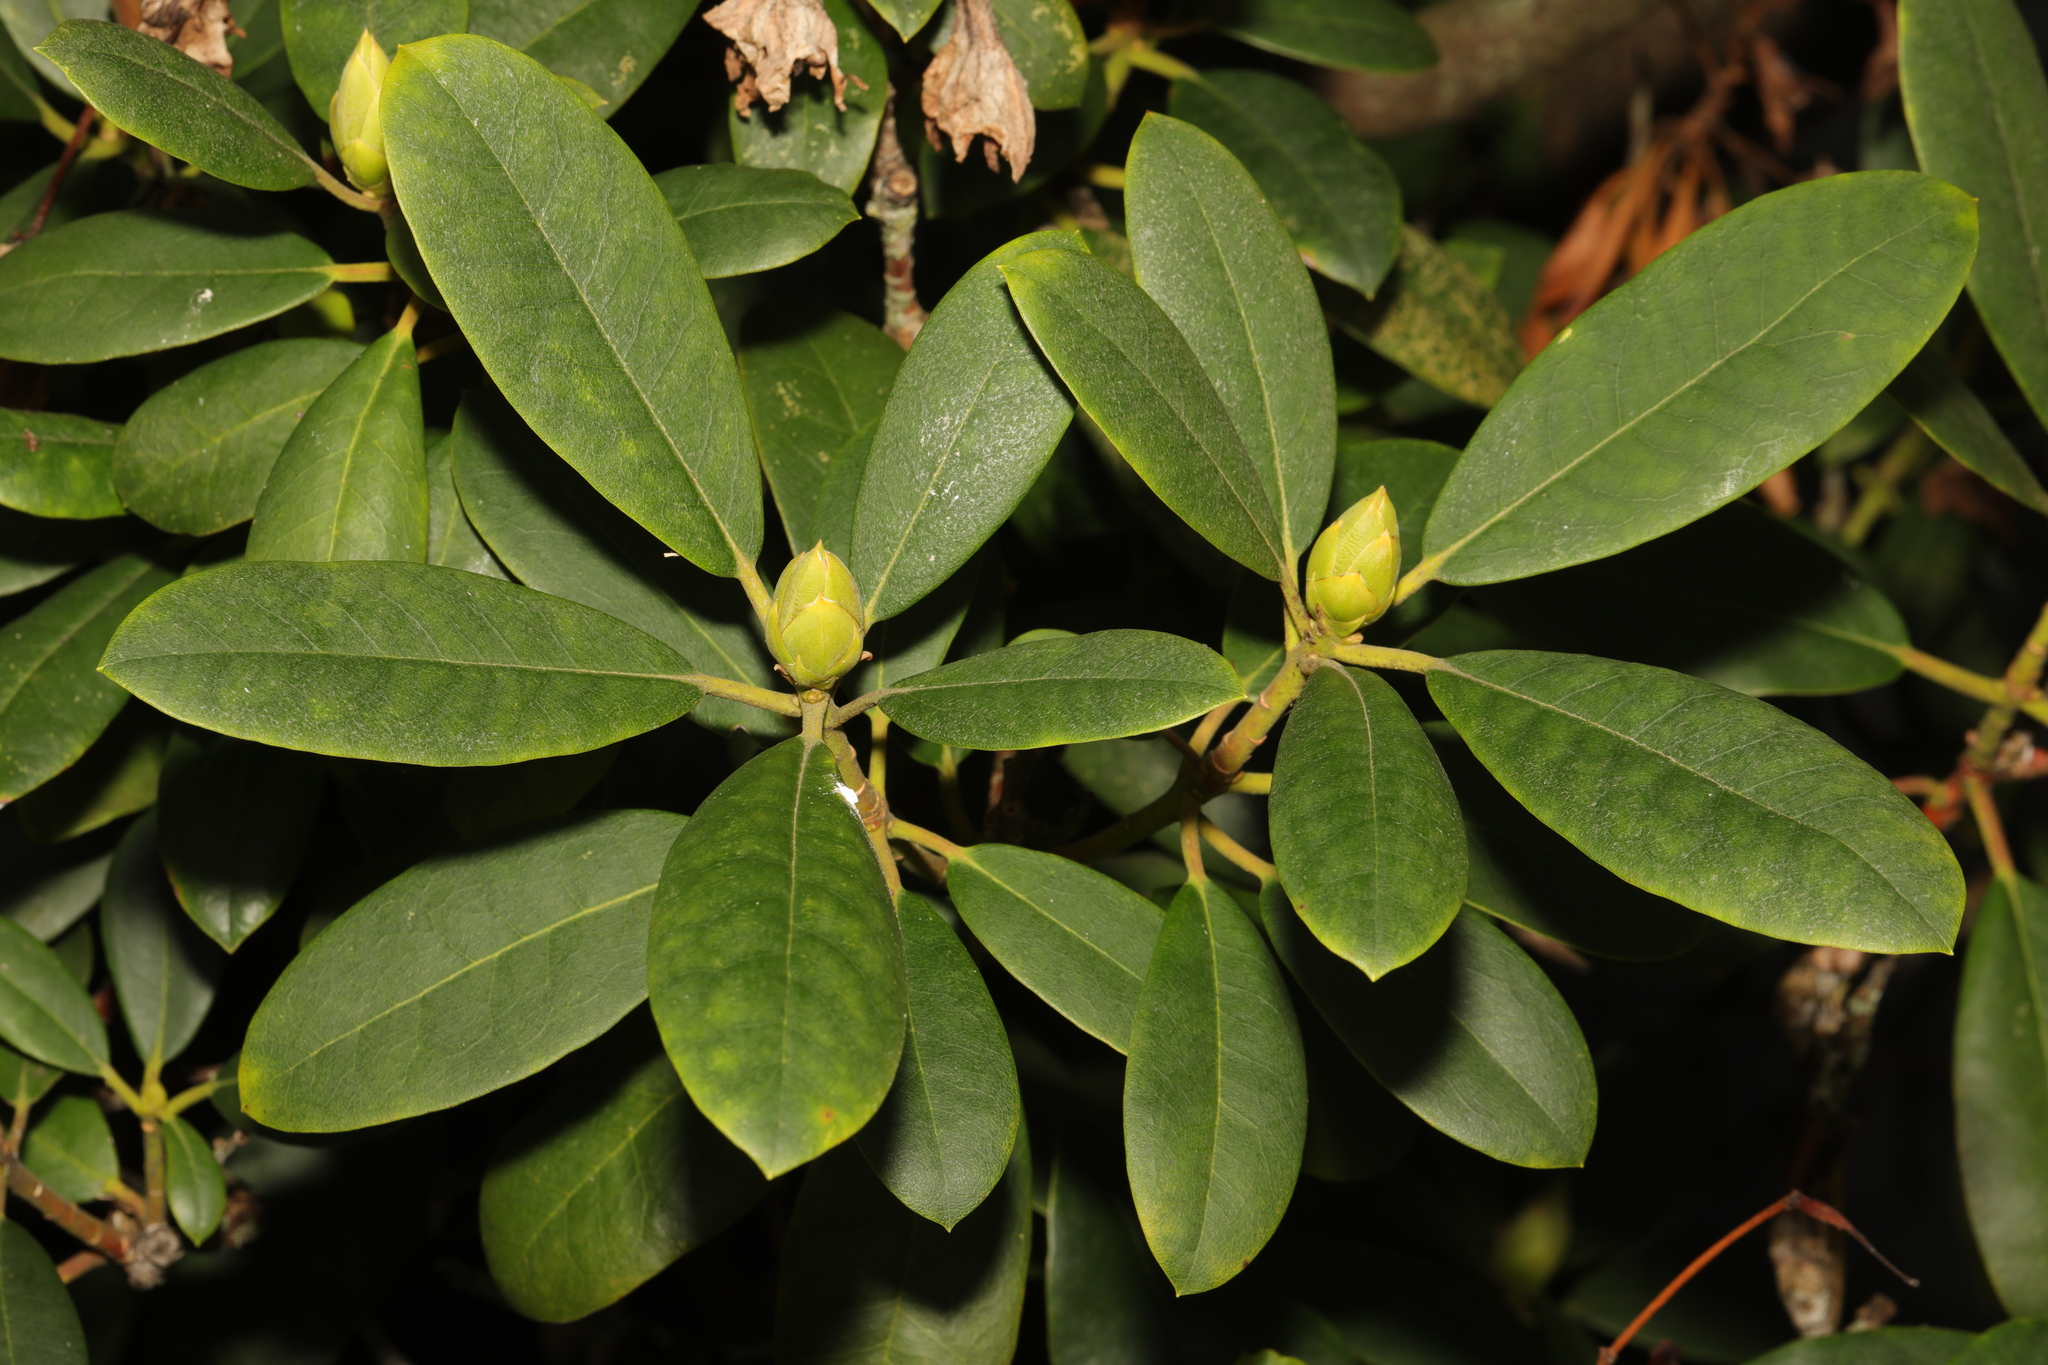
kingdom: Plantae
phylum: Tracheophyta
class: Magnoliopsida
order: Ericales
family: Ericaceae
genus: Rhododendron
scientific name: Rhododendron ponticum
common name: Rhododendron
